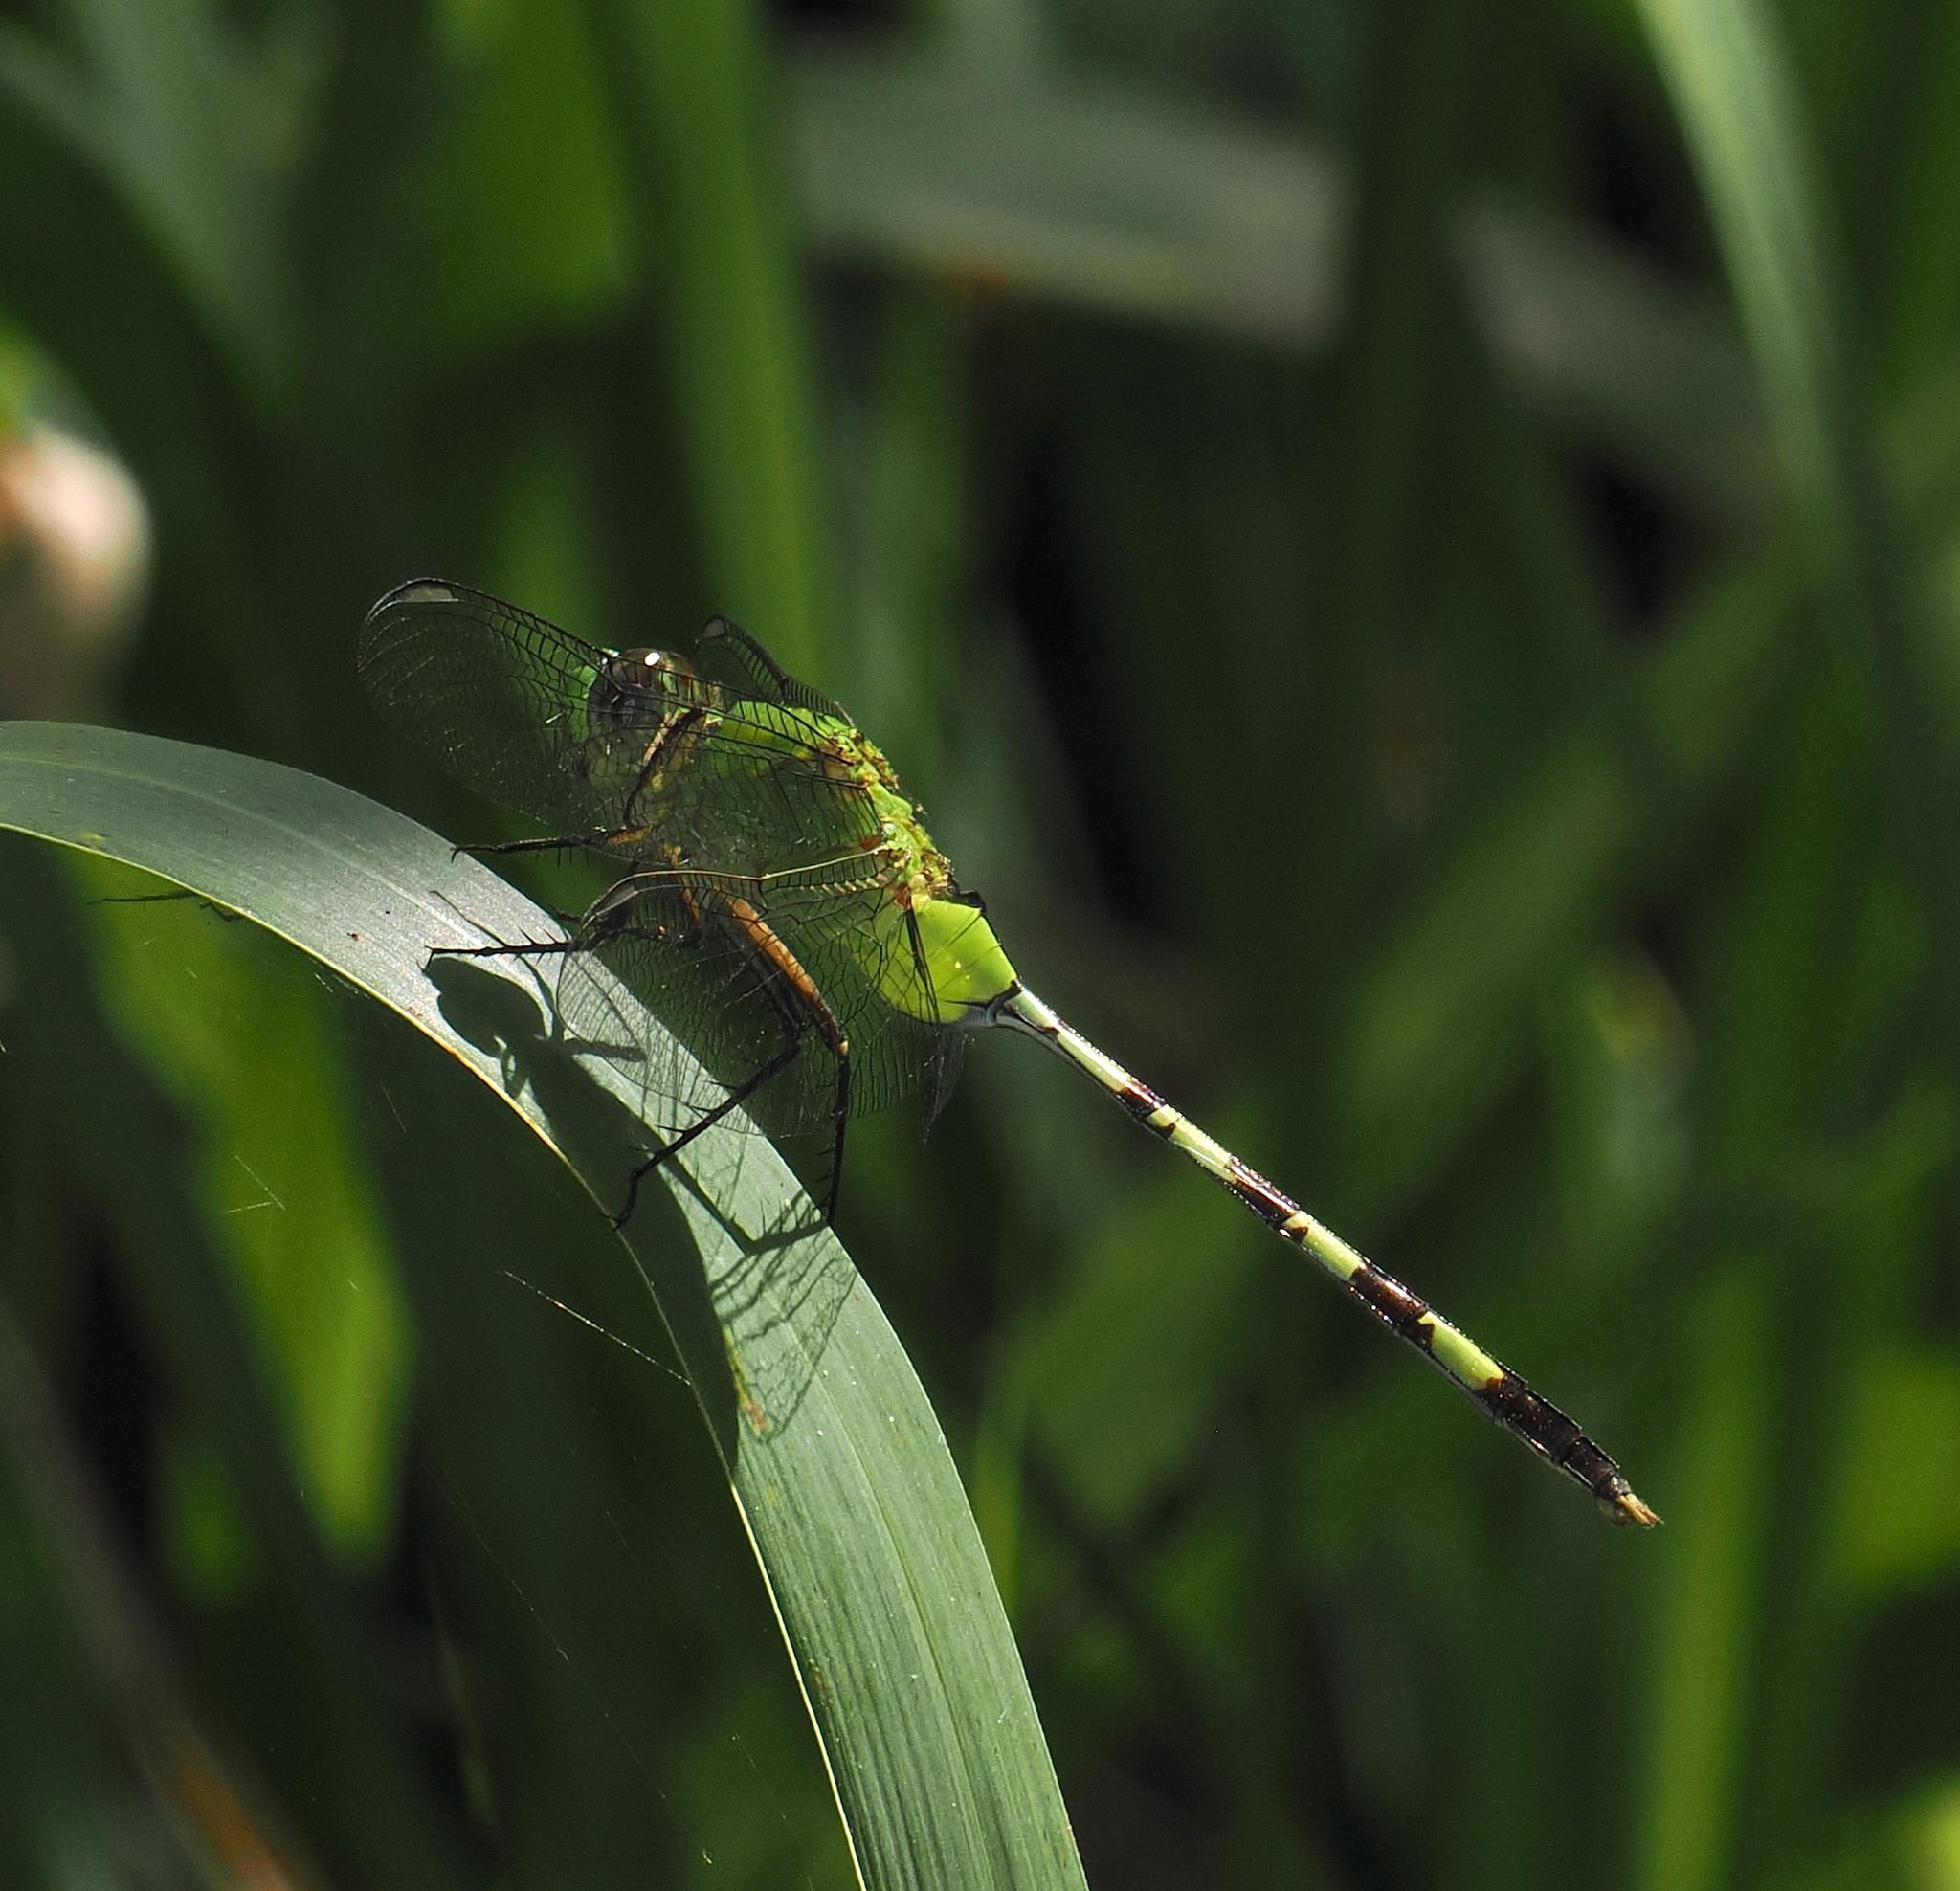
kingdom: Animalia
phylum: Arthropoda
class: Insecta
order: Odonata
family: Libellulidae
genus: Erythemis
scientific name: Erythemis vesiculosa
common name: Great pondhawk
